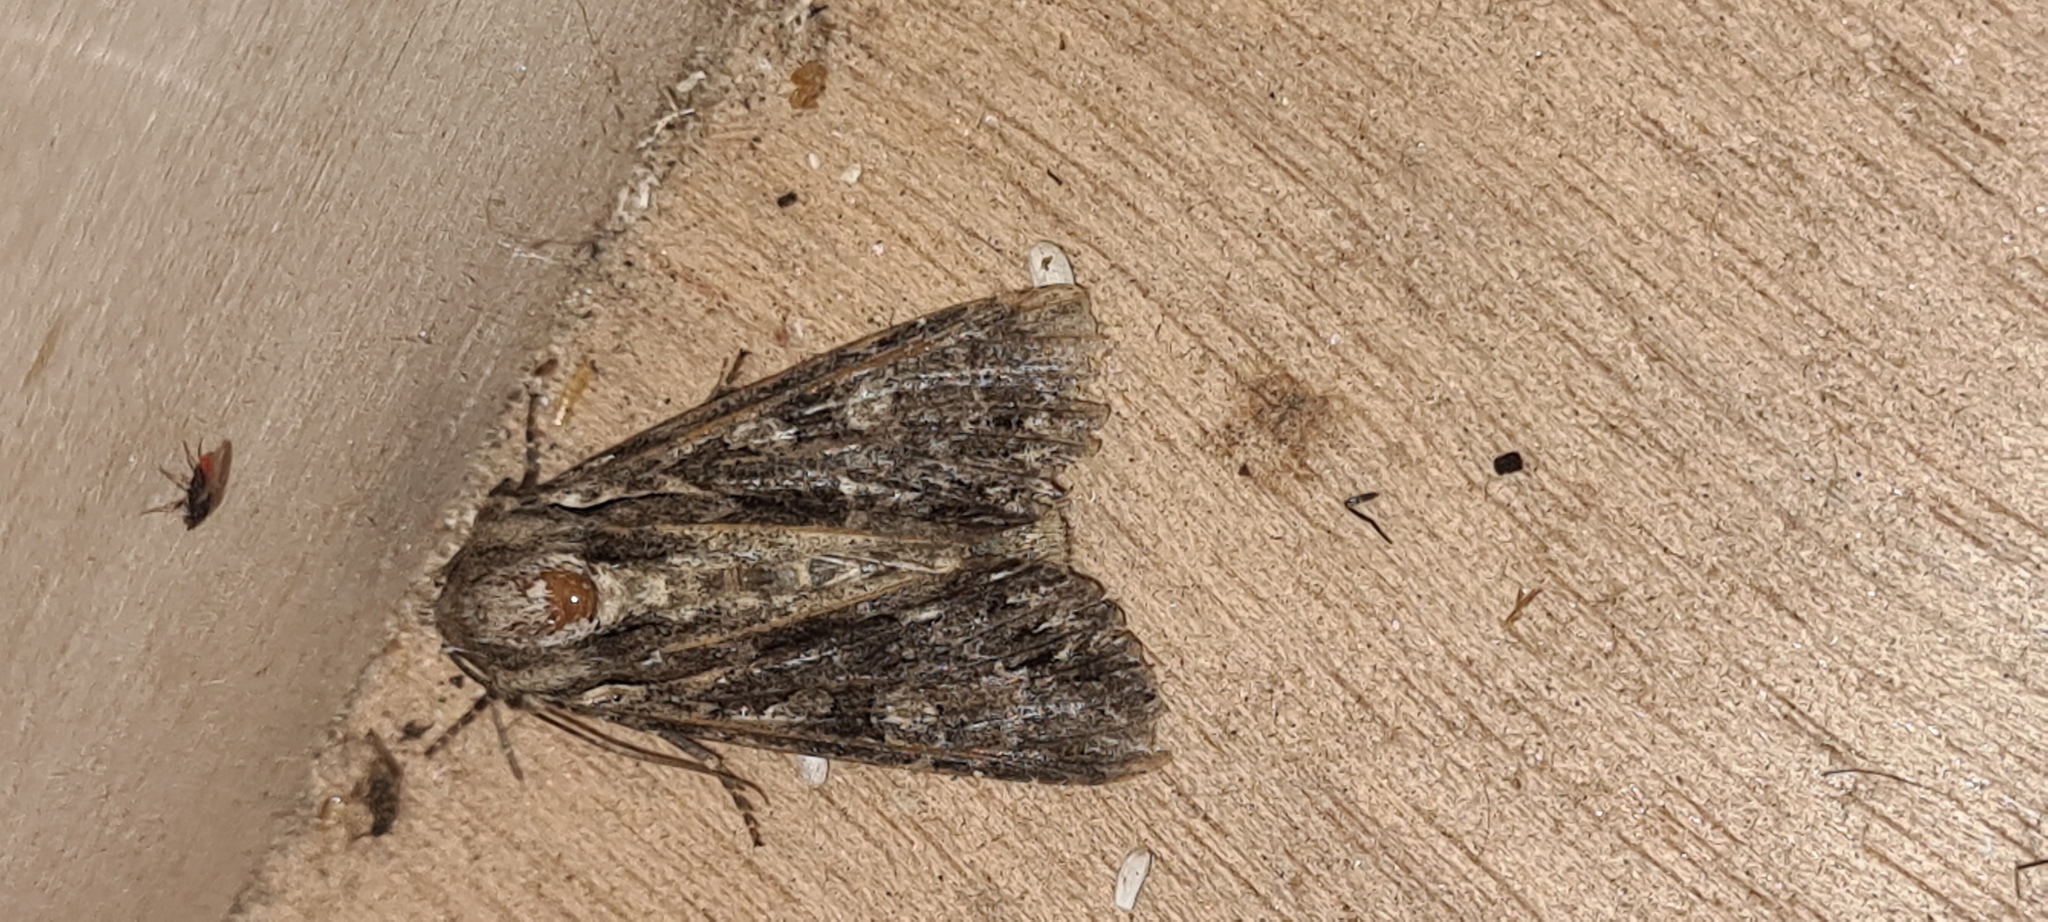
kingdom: Animalia
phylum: Arthropoda
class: Insecta
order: Lepidoptera
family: Noctuidae
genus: Apamea
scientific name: Apamea monoglypha
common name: Dark arches
